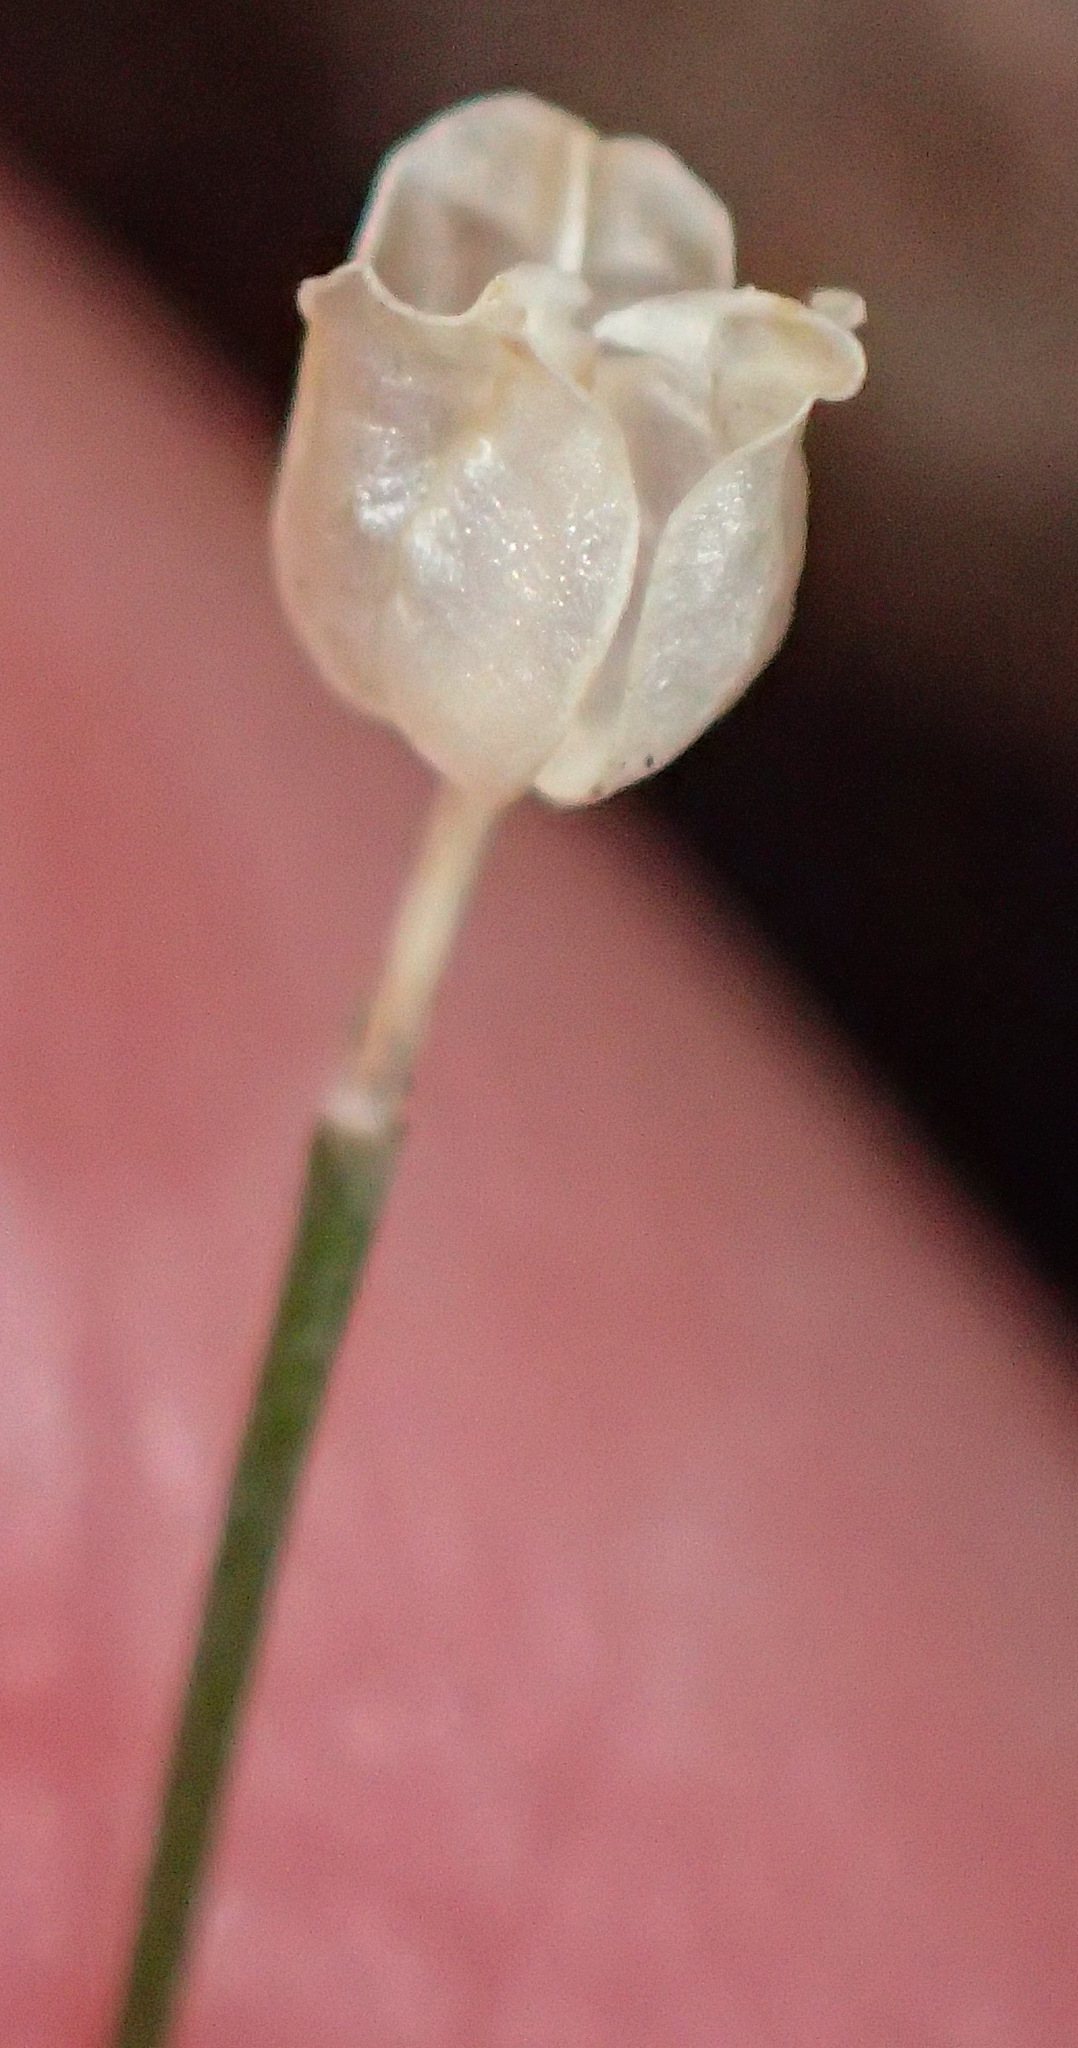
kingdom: Plantae
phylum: Tracheophyta
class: Liliopsida
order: Asparagales
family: Asparagaceae
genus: Drimia
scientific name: Drimia uniflora
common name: Fairy bell
